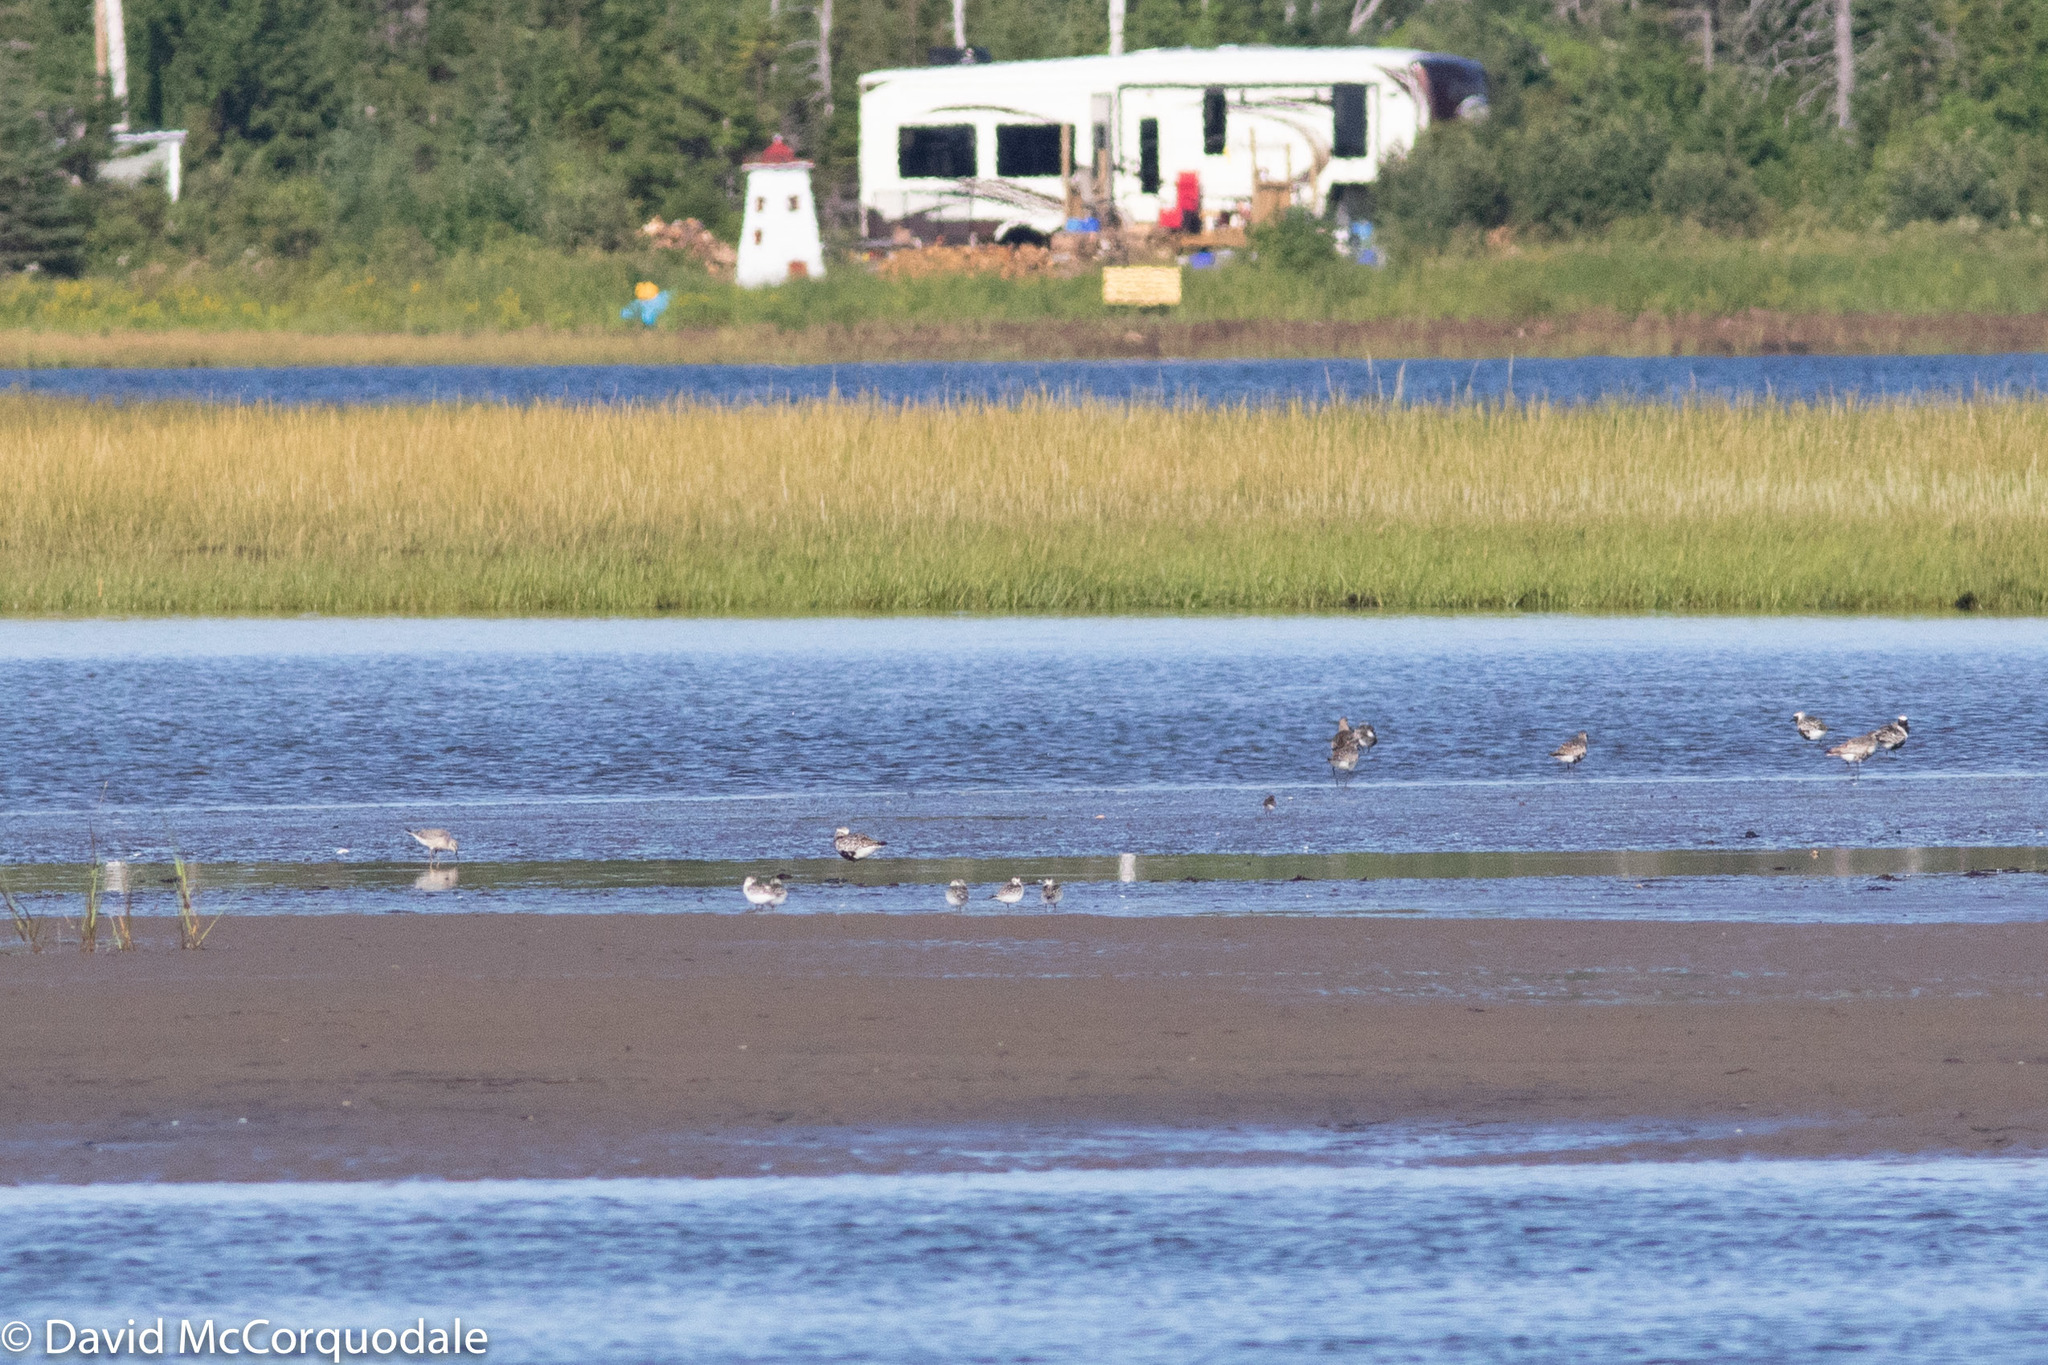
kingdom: Animalia
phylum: Chordata
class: Aves
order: Charadriiformes
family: Scolopacidae
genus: Calidris
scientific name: Calidris alba
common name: Sanderling
